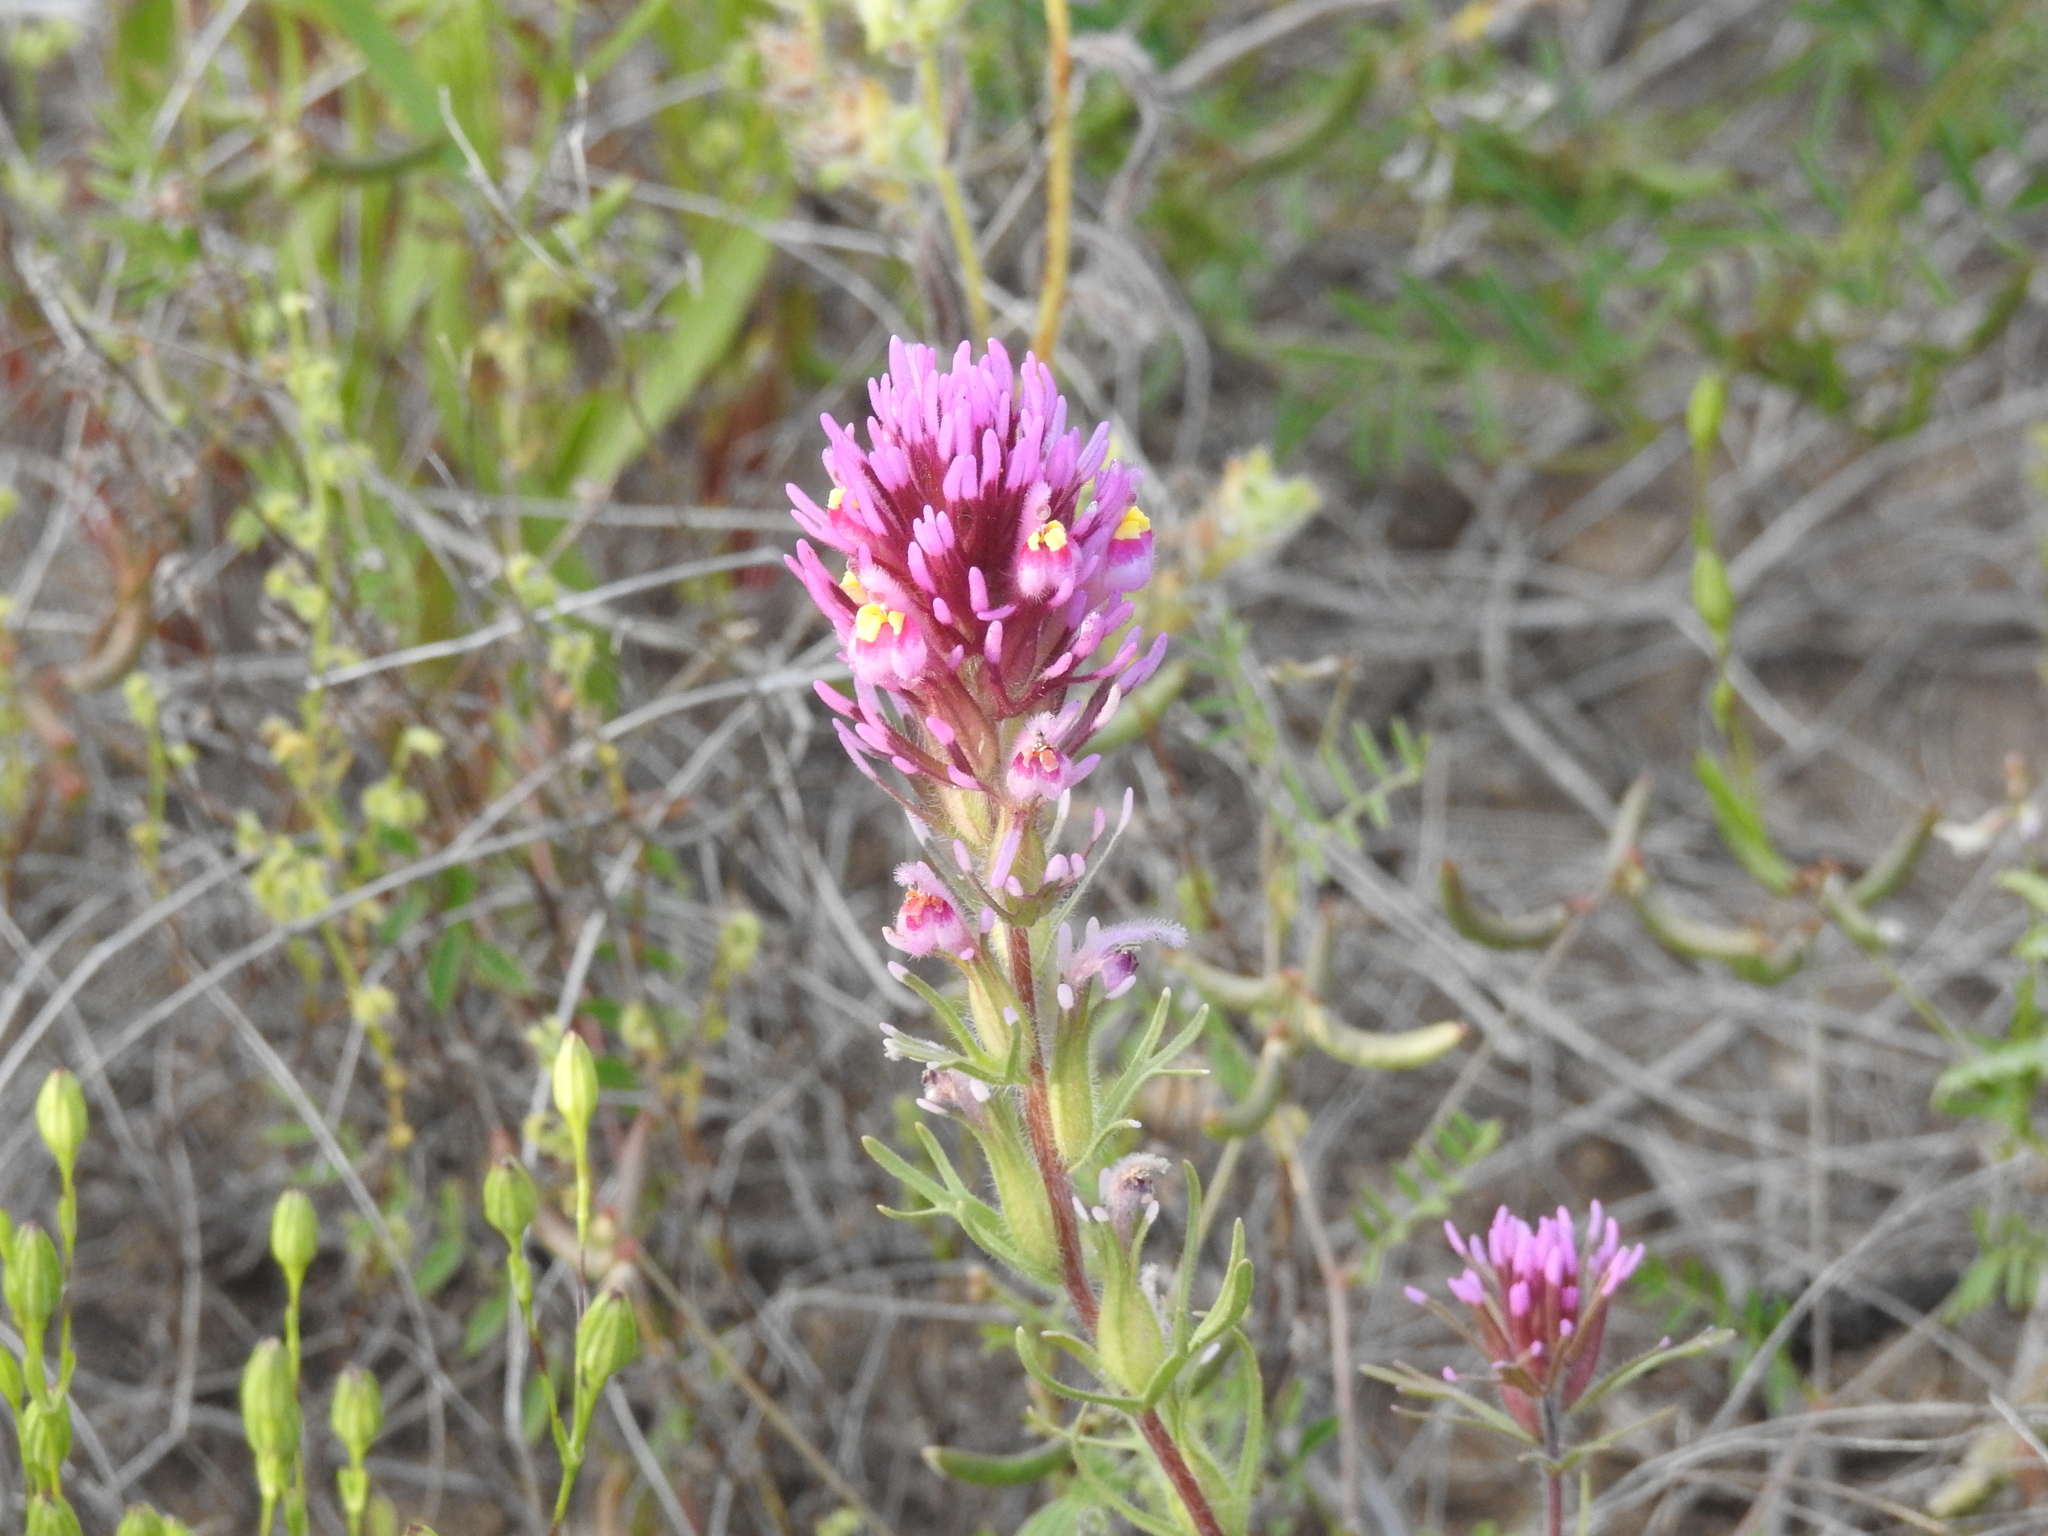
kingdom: Plantae
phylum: Tracheophyta
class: Magnoliopsida
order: Lamiales
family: Orobanchaceae
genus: Castilleja
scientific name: Castilleja exserta
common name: Purple owl-clover
